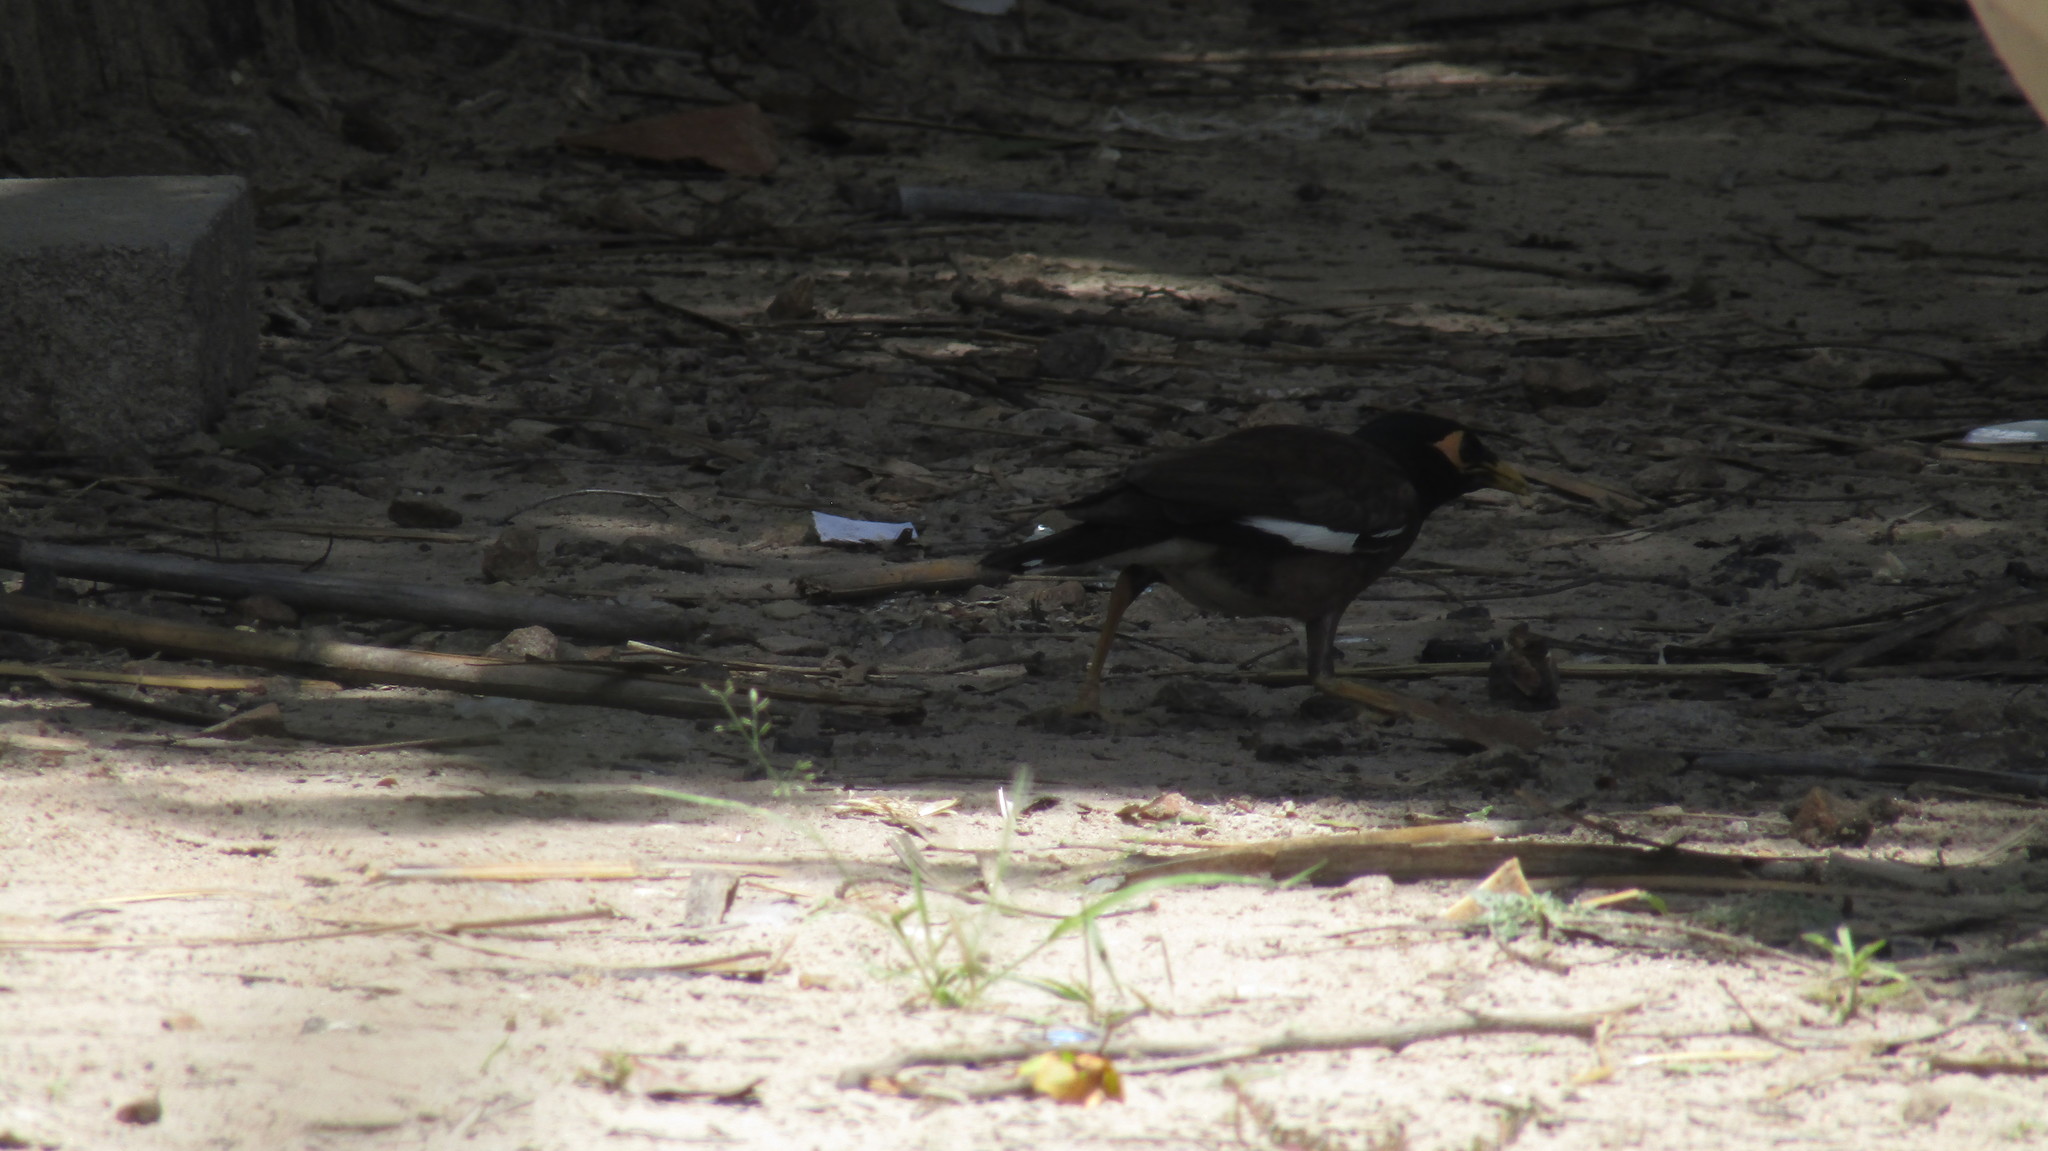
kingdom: Animalia
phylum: Chordata
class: Aves
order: Passeriformes
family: Sturnidae
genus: Acridotheres
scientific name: Acridotheres tristis
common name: Common myna
